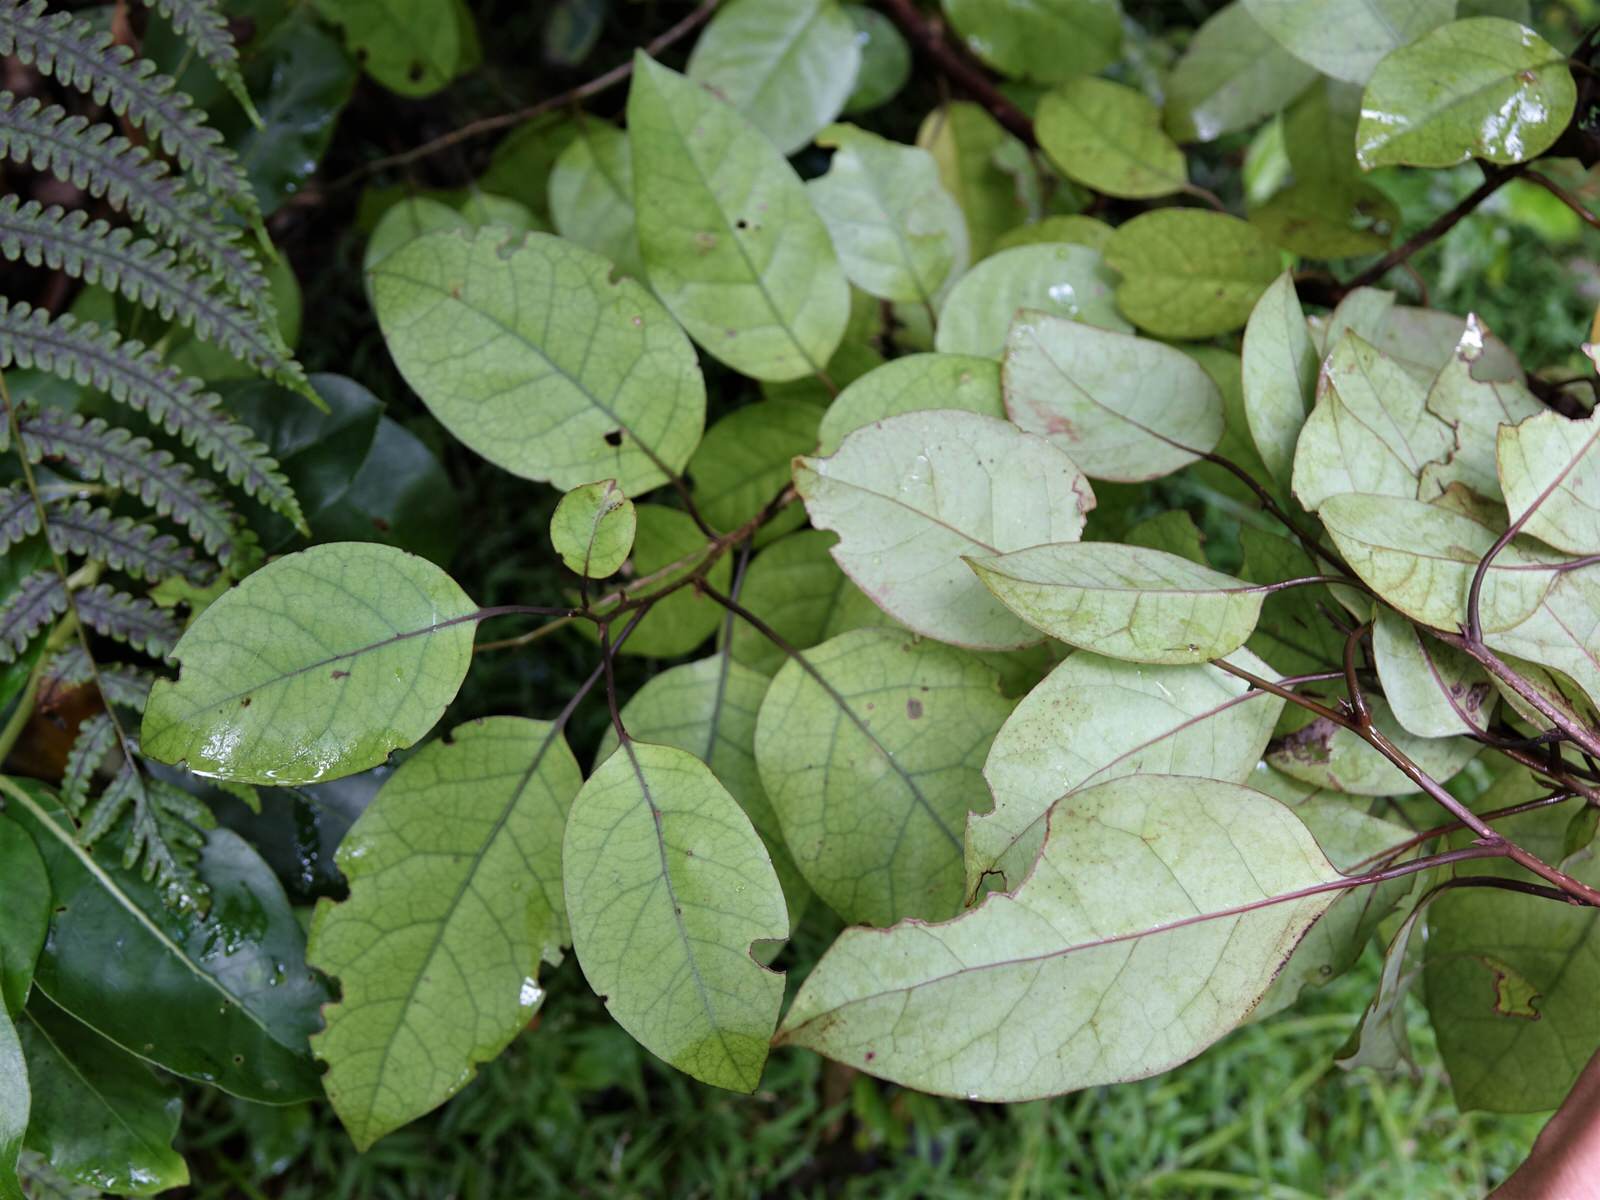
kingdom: Plantae
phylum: Tracheophyta
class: Magnoliopsida
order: Laurales
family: Lauraceae
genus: Litsea
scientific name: Litsea calicaris
